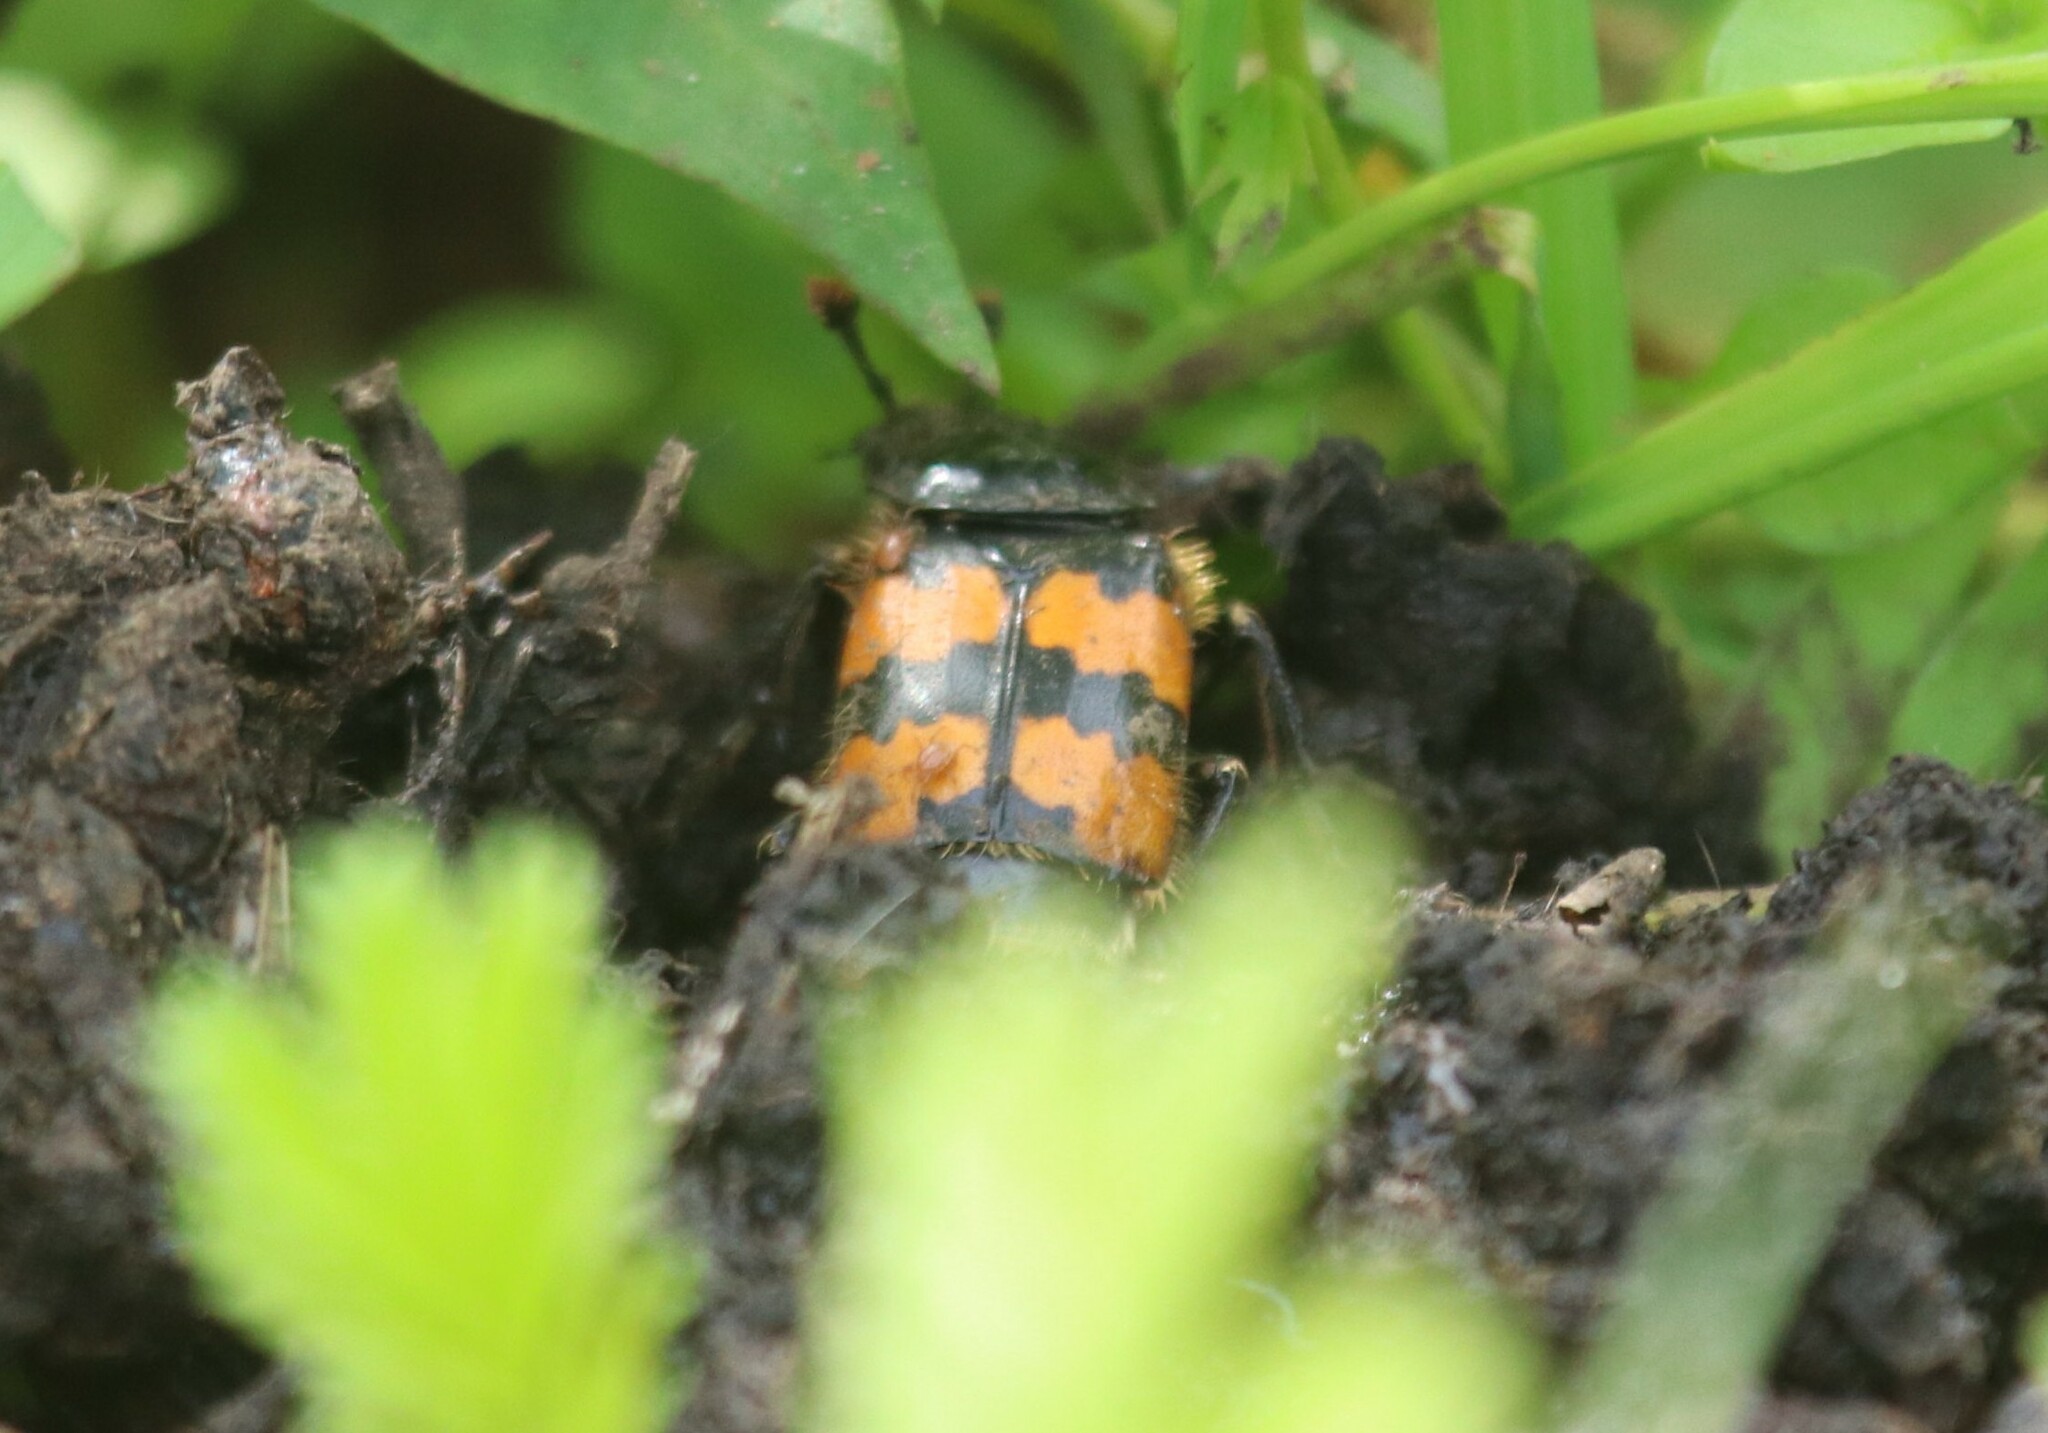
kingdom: Animalia
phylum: Arthropoda
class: Insecta
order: Coleoptera
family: Staphylinidae
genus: Nicrophorus
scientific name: Nicrophorus vespillo
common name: Common burying beetle
